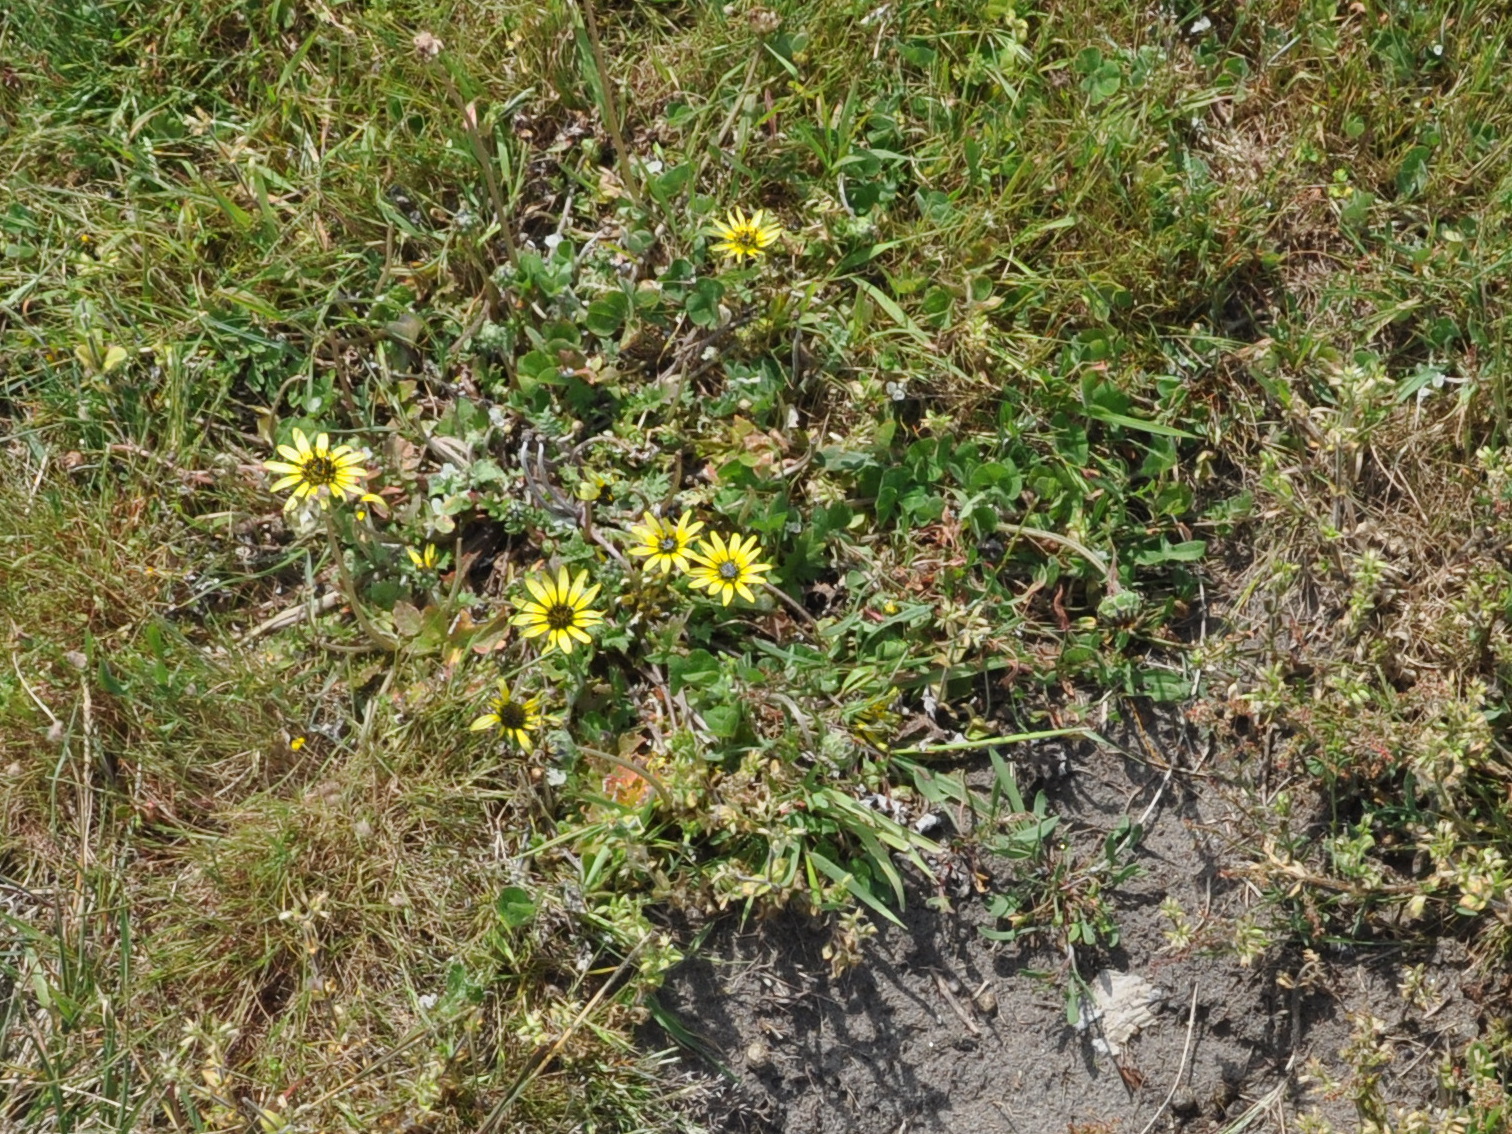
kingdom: Plantae
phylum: Tracheophyta
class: Magnoliopsida
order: Asterales
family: Asteraceae
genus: Arctotheca
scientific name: Arctotheca calendula
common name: Capeweed
